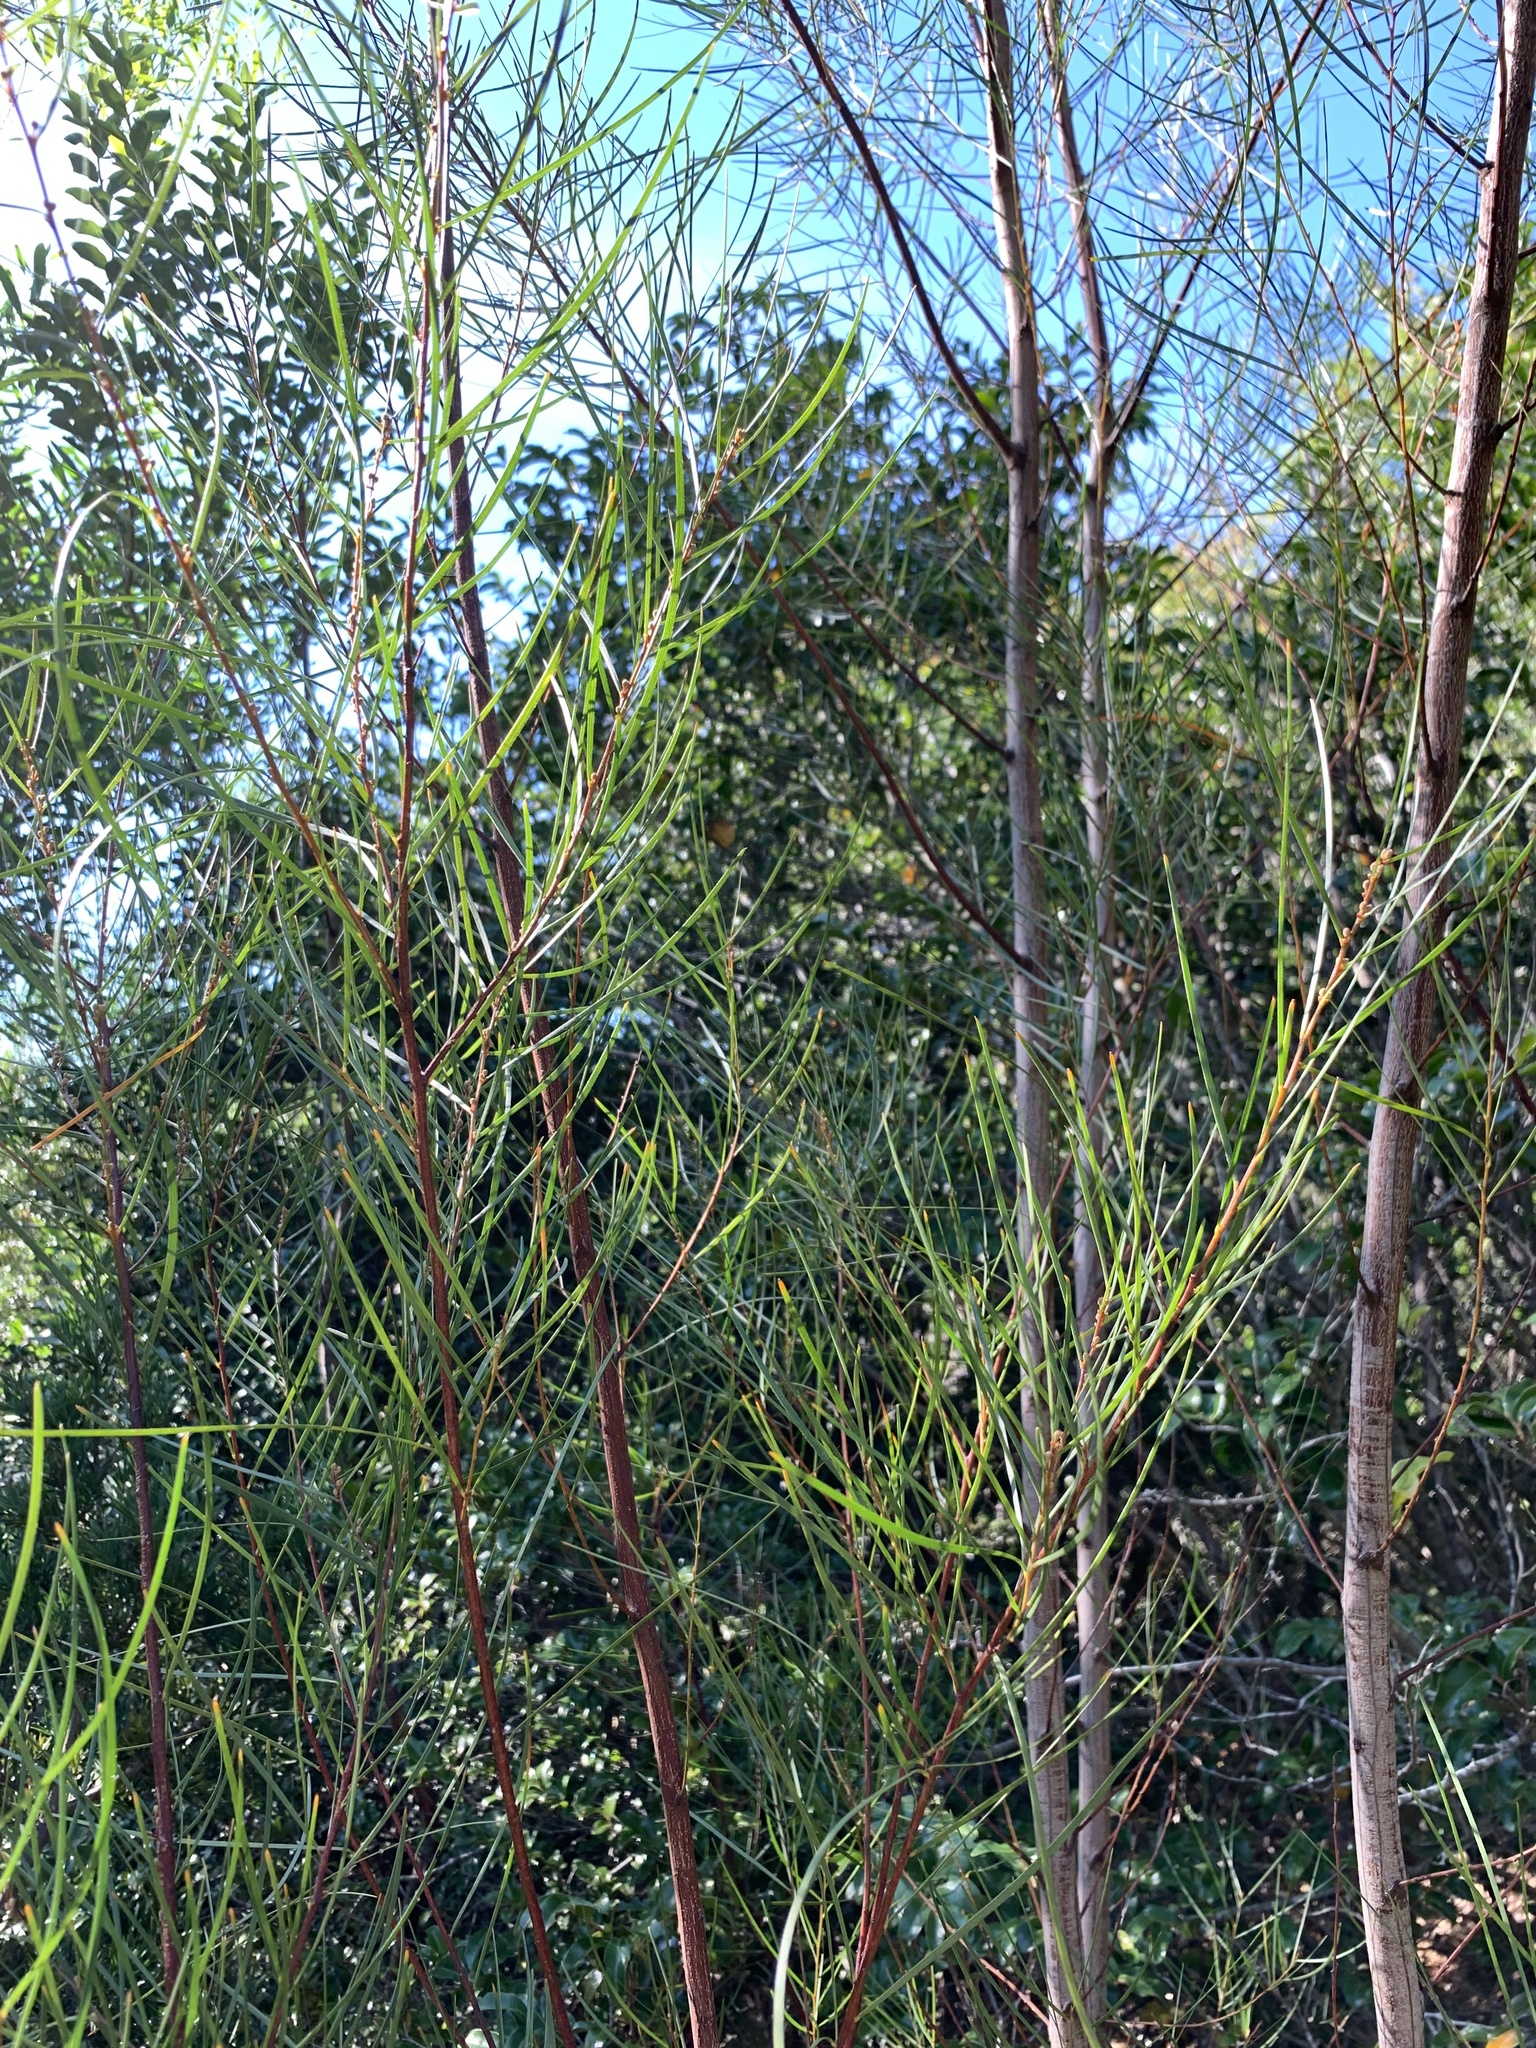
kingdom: Plantae
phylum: Tracheophyta
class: Magnoliopsida
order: Fabales
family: Fabaceae
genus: Acacia
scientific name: Acacia viscidula
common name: Sticky wattle
